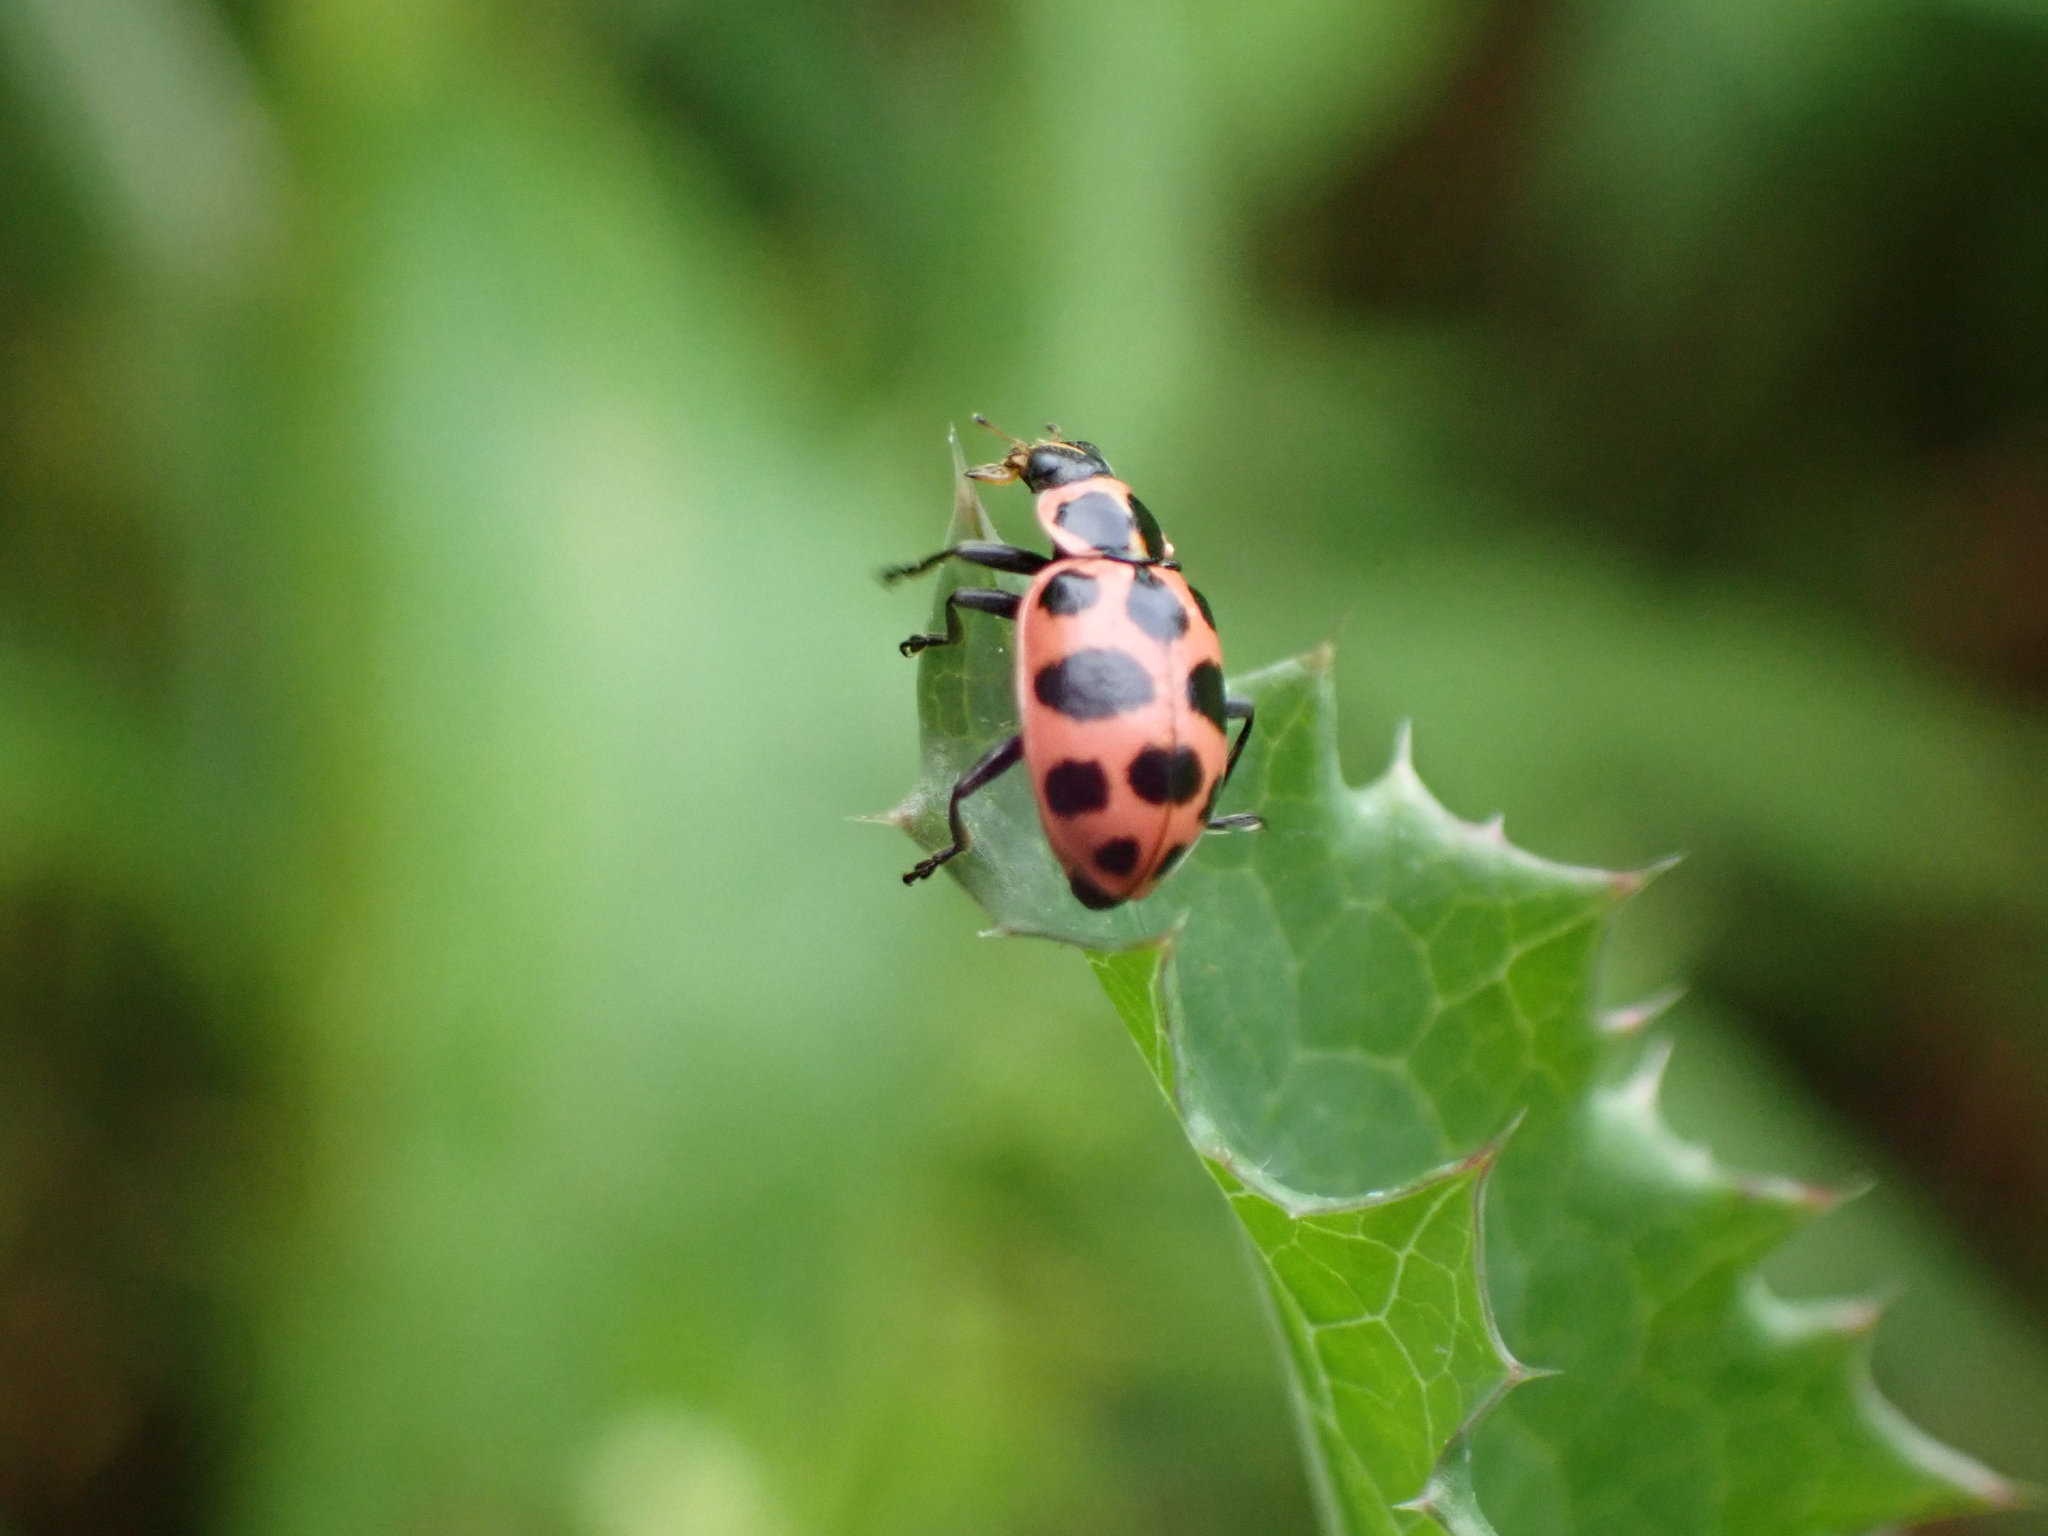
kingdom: Animalia
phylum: Arthropoda
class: Insecta
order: Coleoptera
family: Coccinellidae
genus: Coleomegilla
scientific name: Coleomegilla maculata
